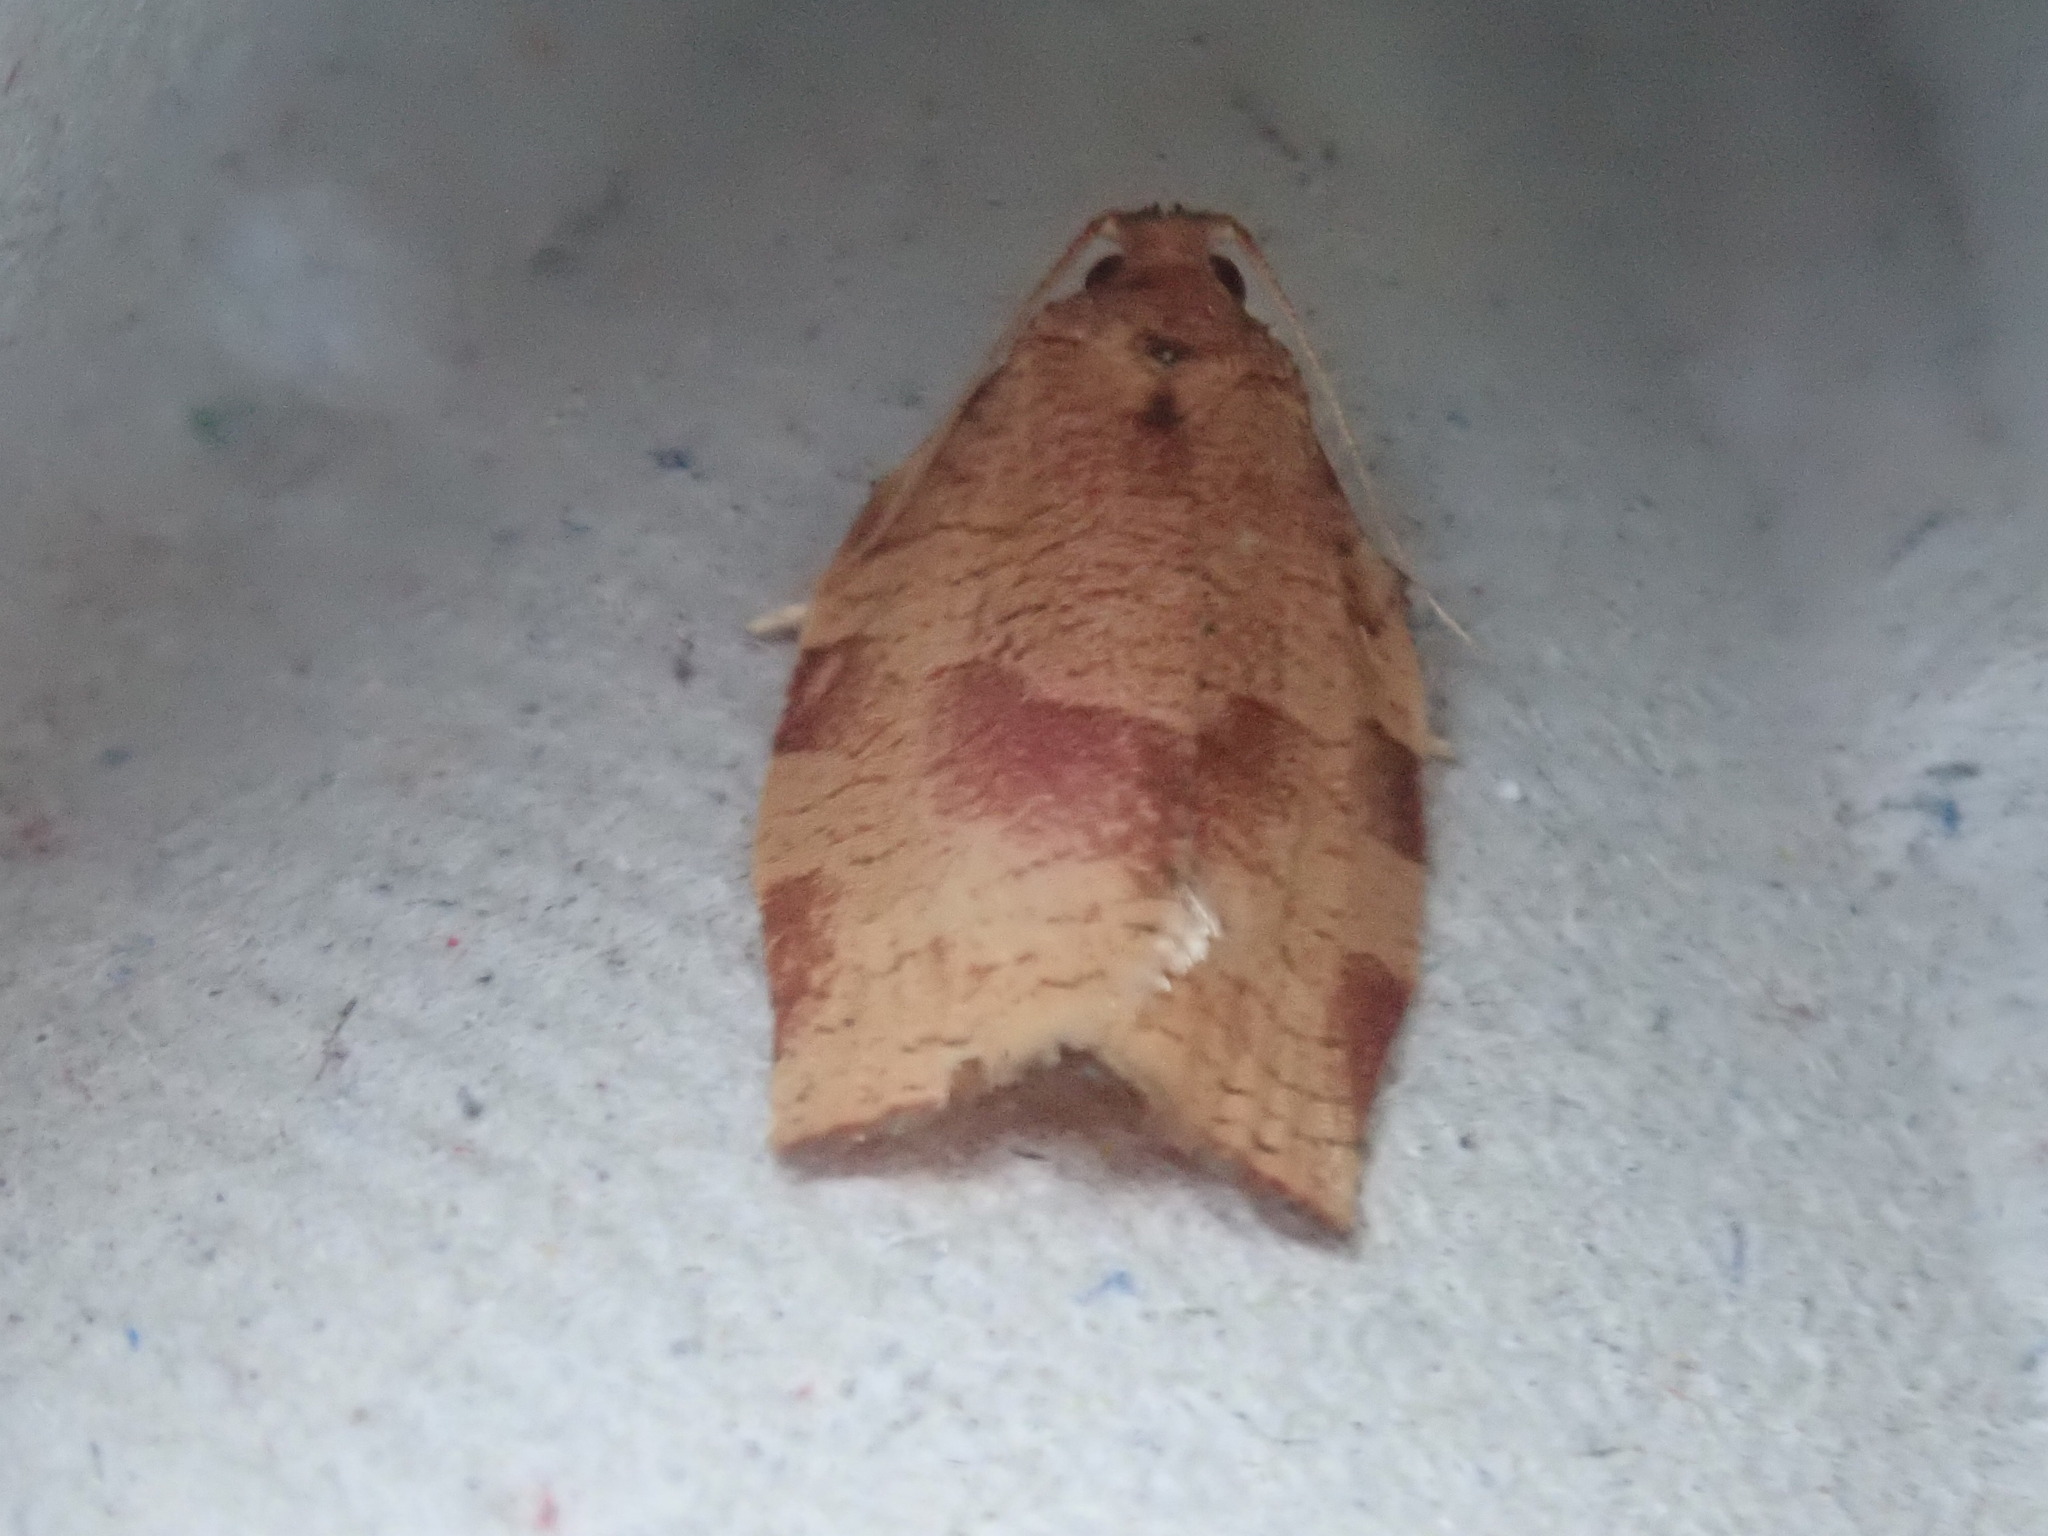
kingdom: Animalia
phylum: Arthropoda
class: Insecta
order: Lepidoptera
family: Tortricidae
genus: Choristoneura
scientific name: Choristoneura rosaceana
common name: Oblique-banded leafroller moth
